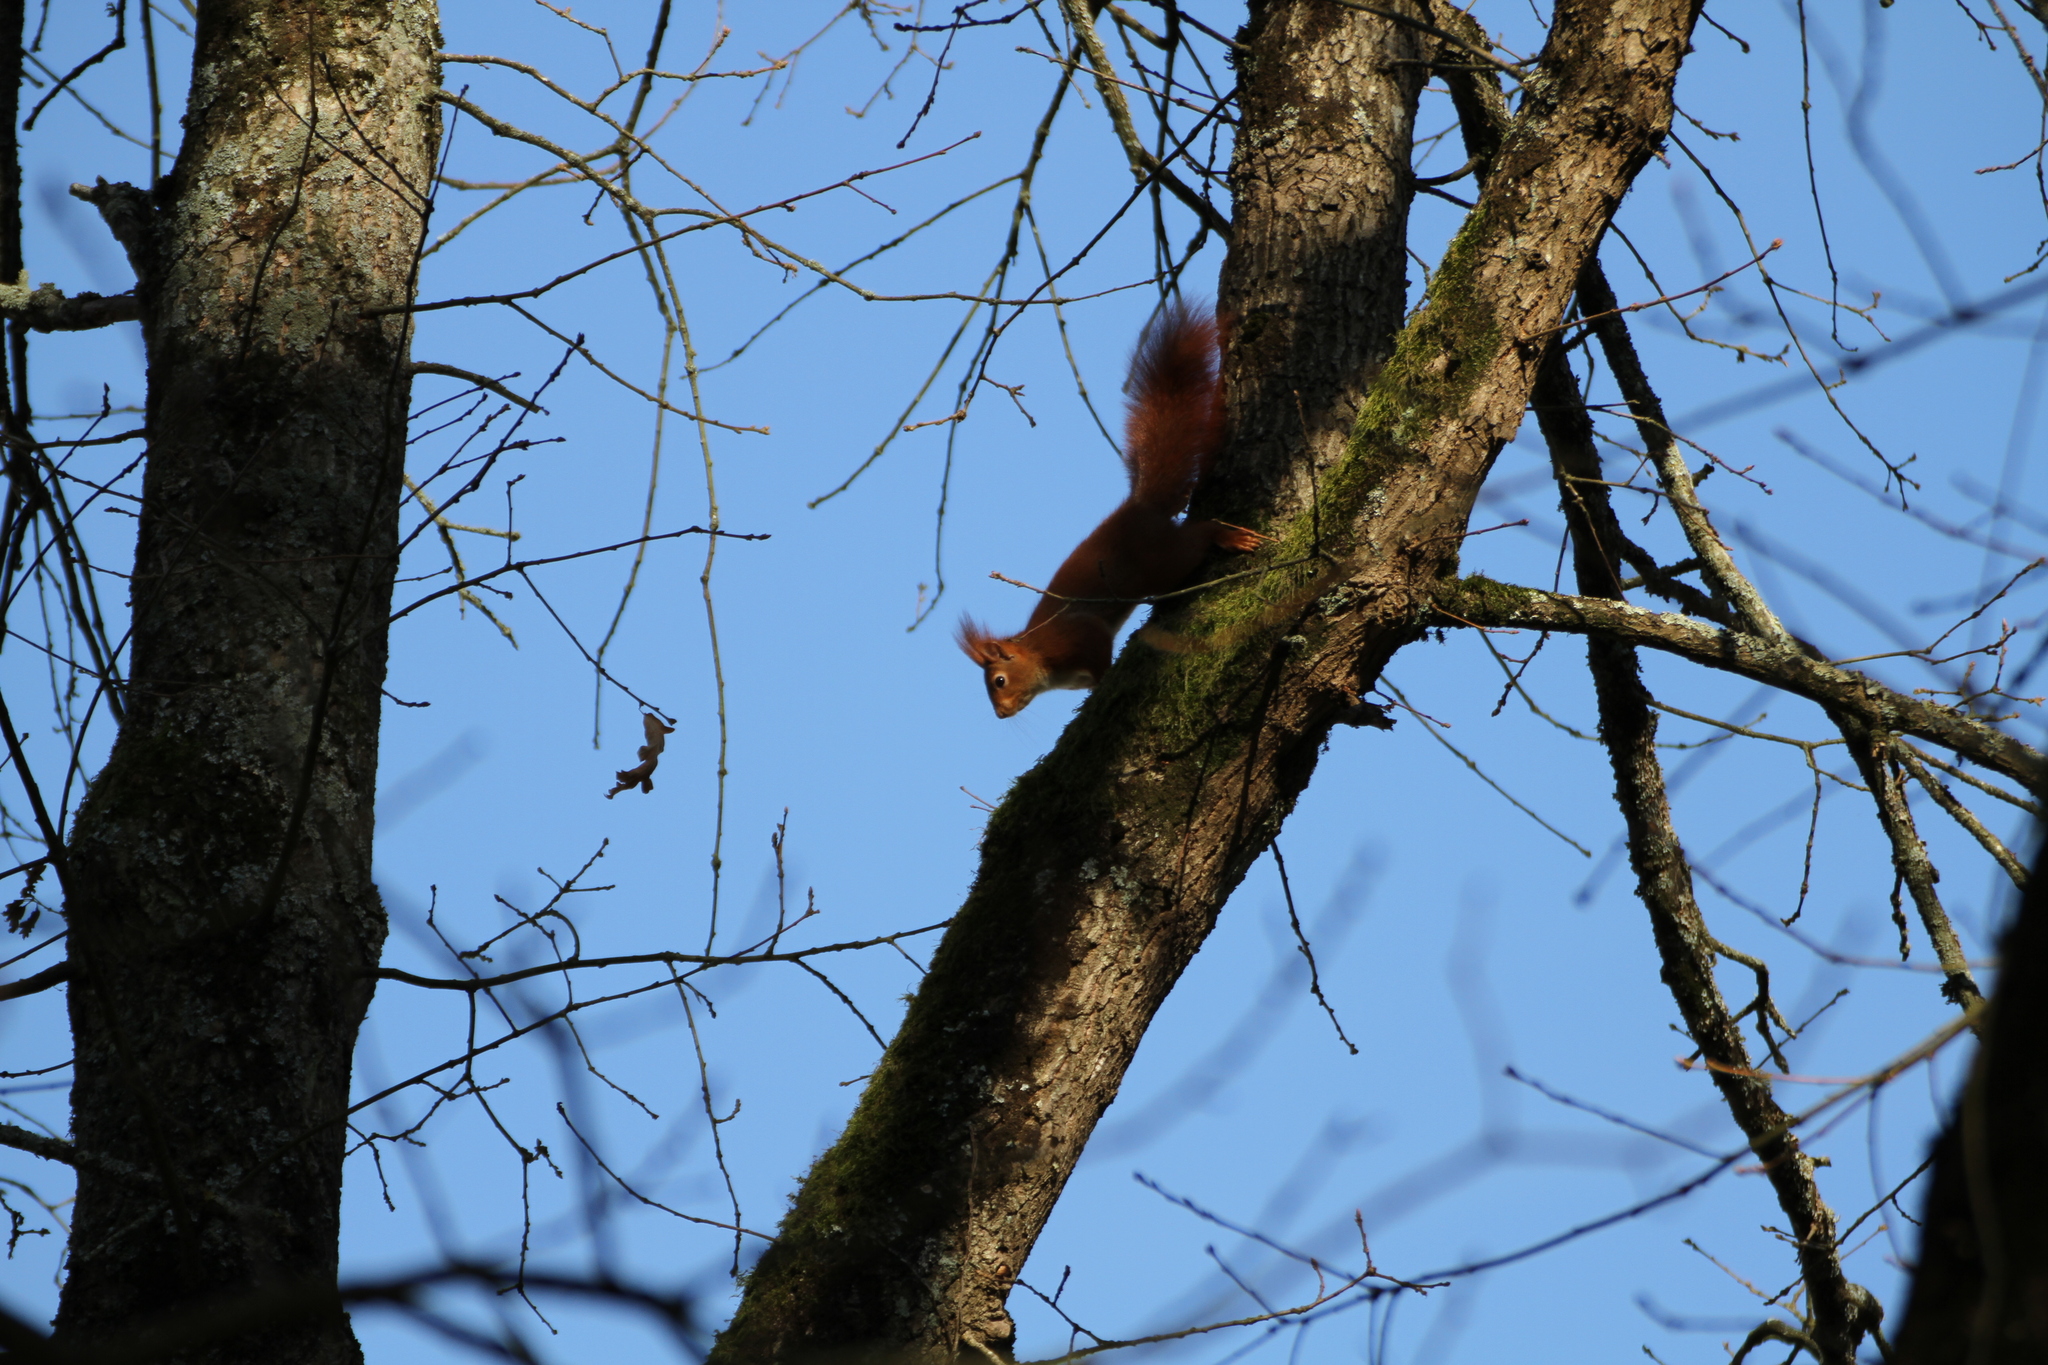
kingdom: Animalia
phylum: Chordata
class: Mammalia
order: Rodentia
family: Sciuridae
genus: Sciurus
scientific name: Sciurus vulgaris
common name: Eurasian red squirrel
